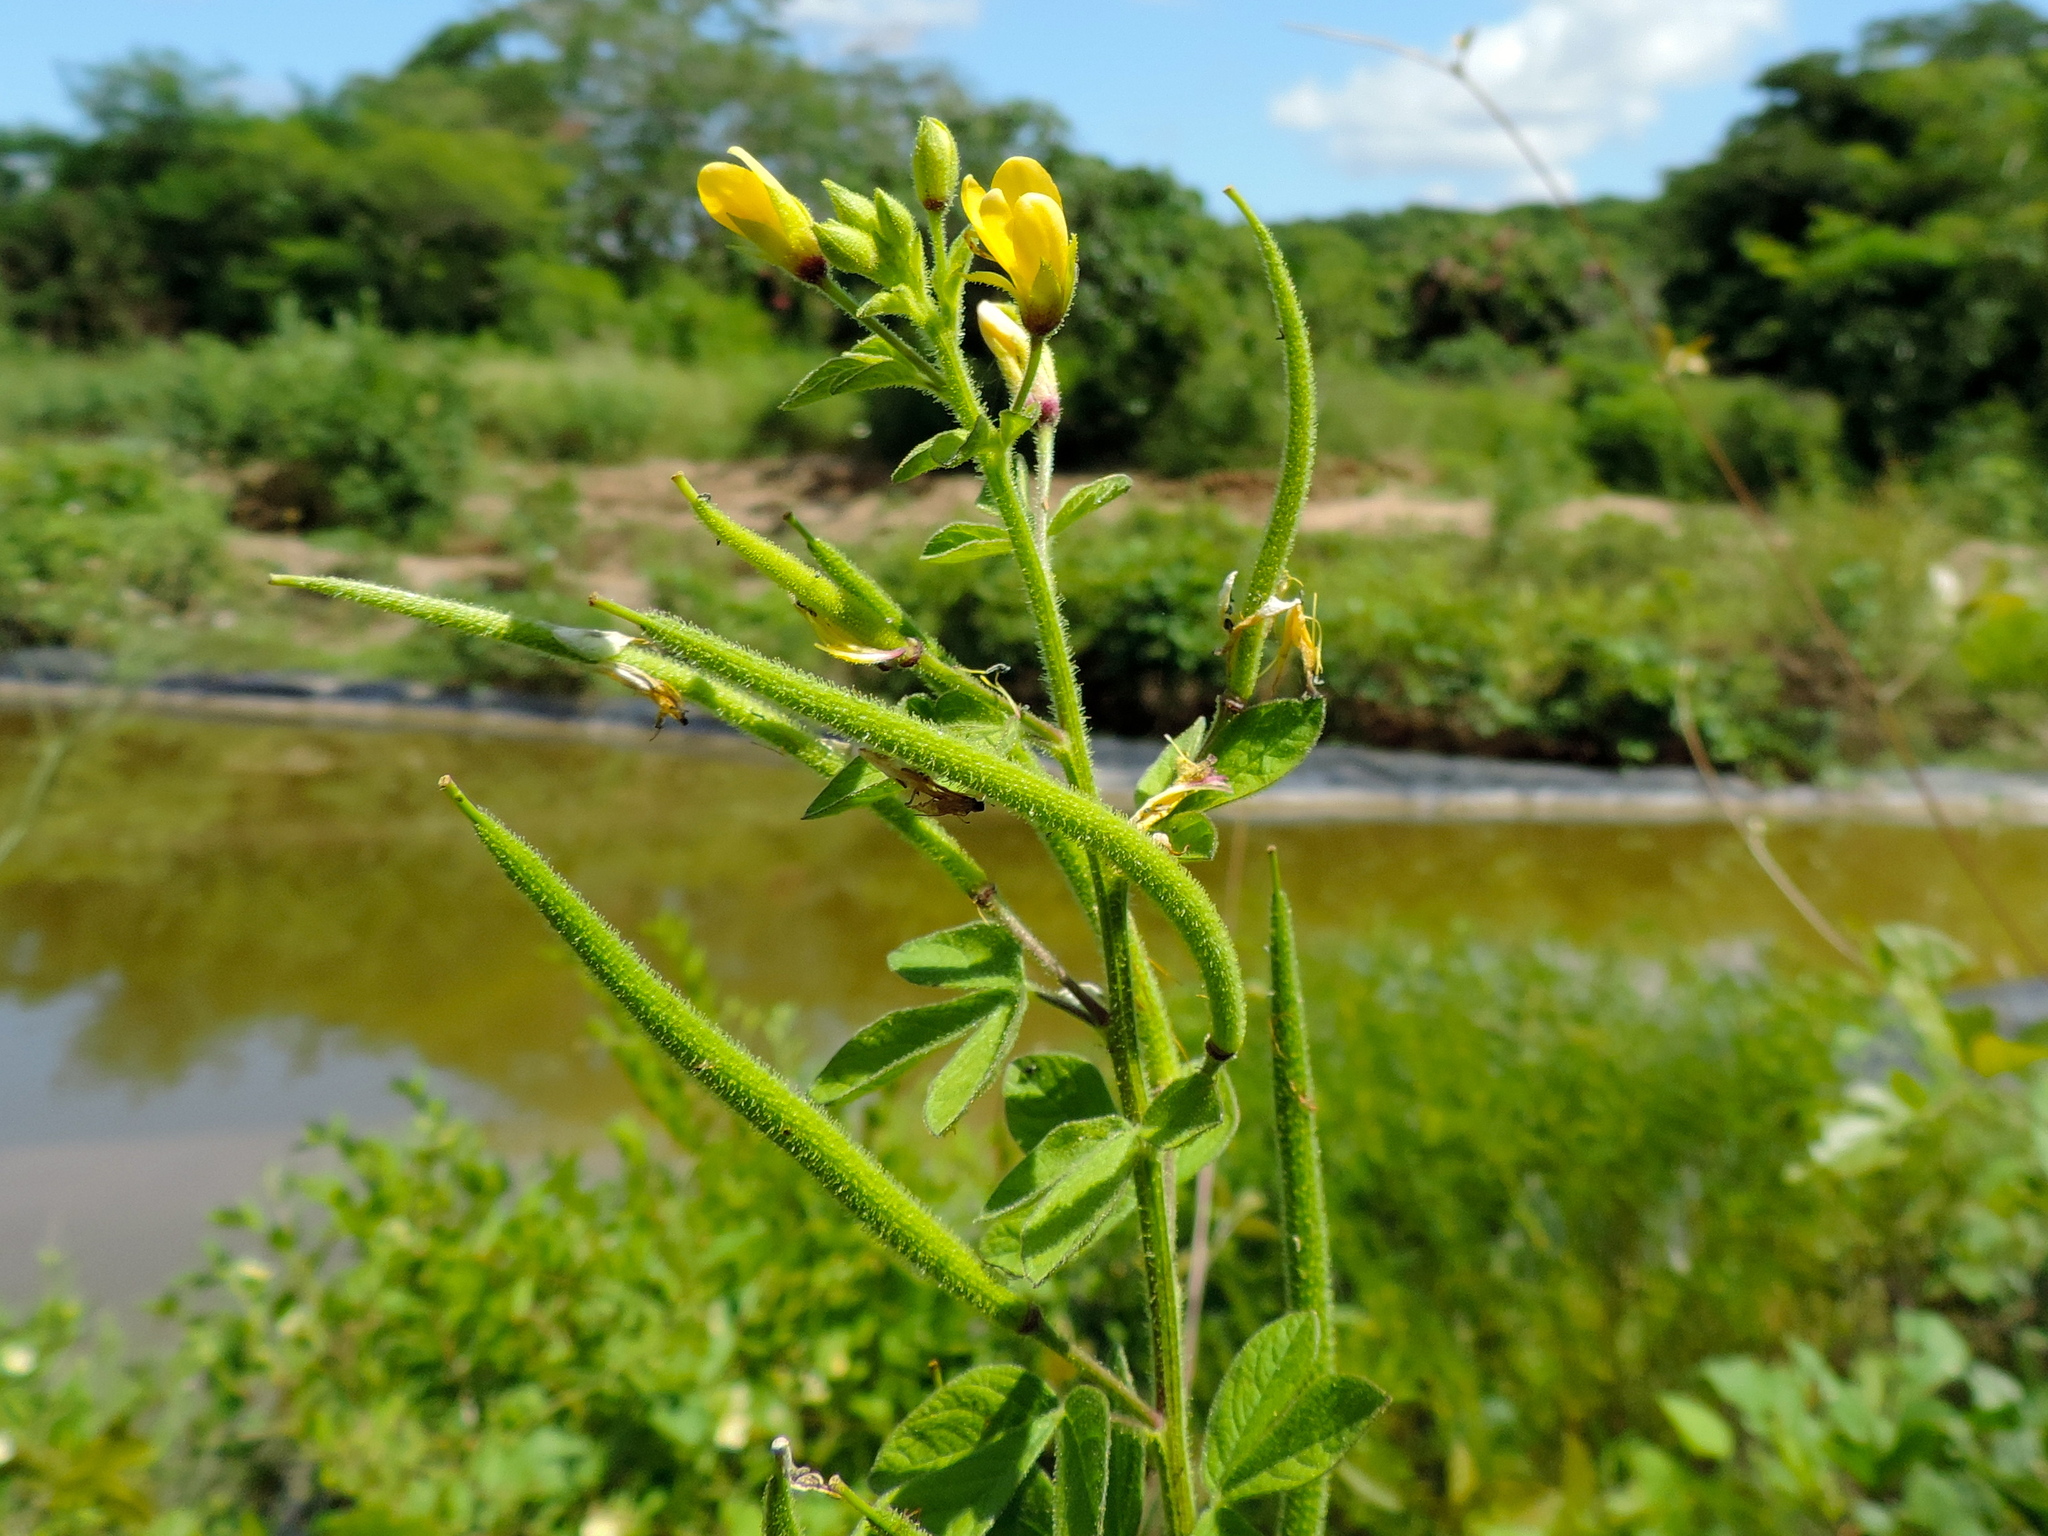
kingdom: Plantae
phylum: Tracheophyta
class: Magnoliopsida
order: Brassicales
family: Cleomaceae
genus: Arivela
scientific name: Arivela viscosa
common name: Asian spiderflower
